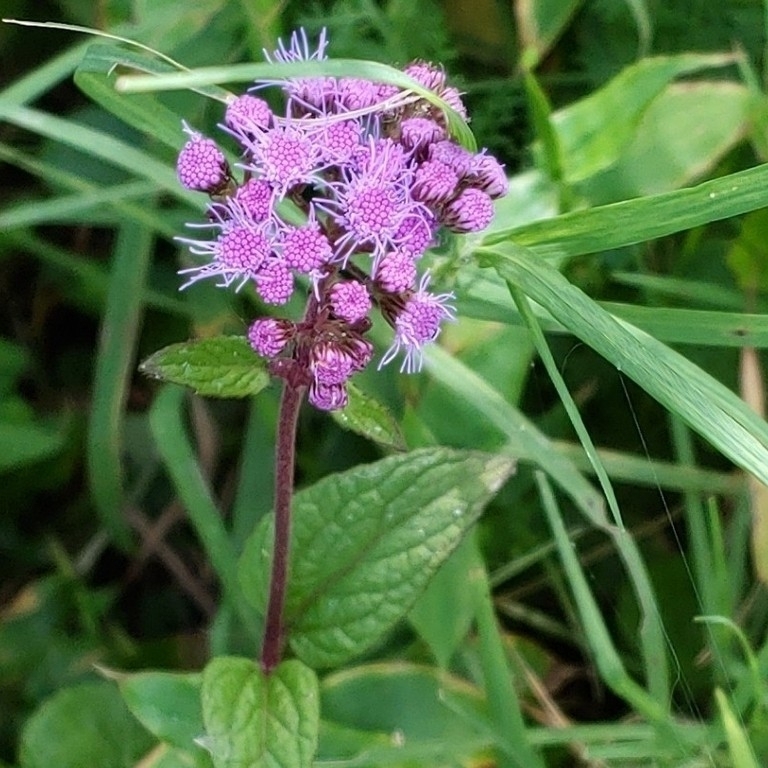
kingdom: Plantae
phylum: Tracheophyta
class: Magnoliopsida
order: Asterales
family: Asteraceae
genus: Conoclinium
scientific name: Conoclinium coelestinum
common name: Blue mistflower
